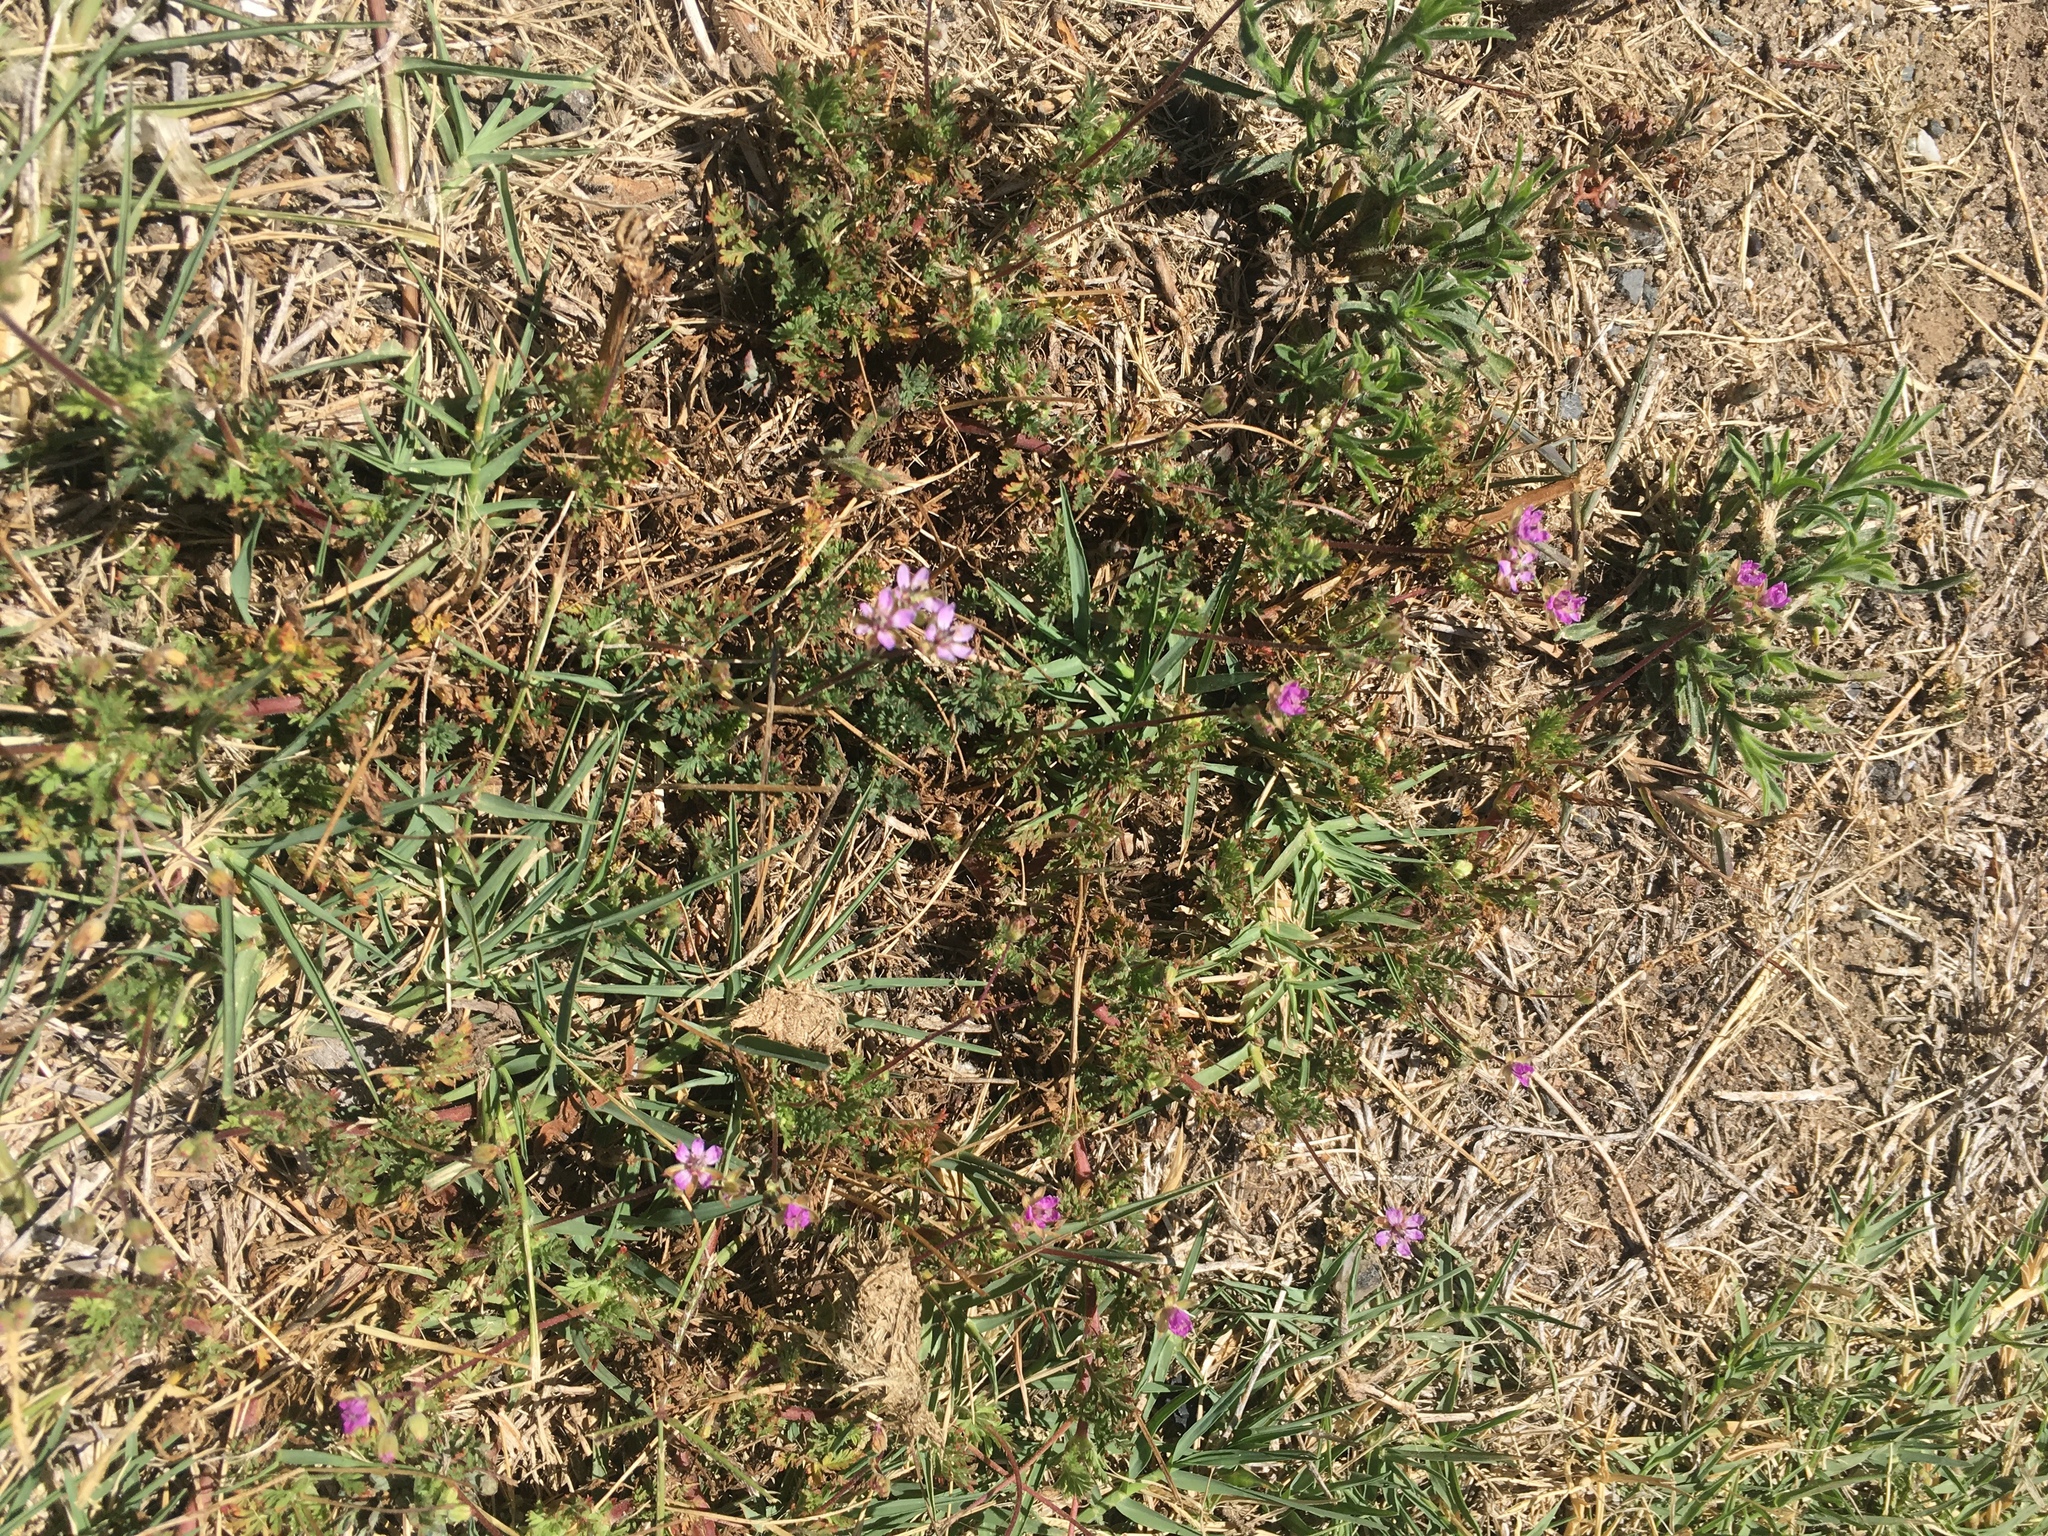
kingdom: Plantae
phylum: Tracheophyta
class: Magnoliopsida
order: Geraniales
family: Geraniaceae
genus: Erodium
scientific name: Erodium cicutarium
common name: Common stork's-bill
